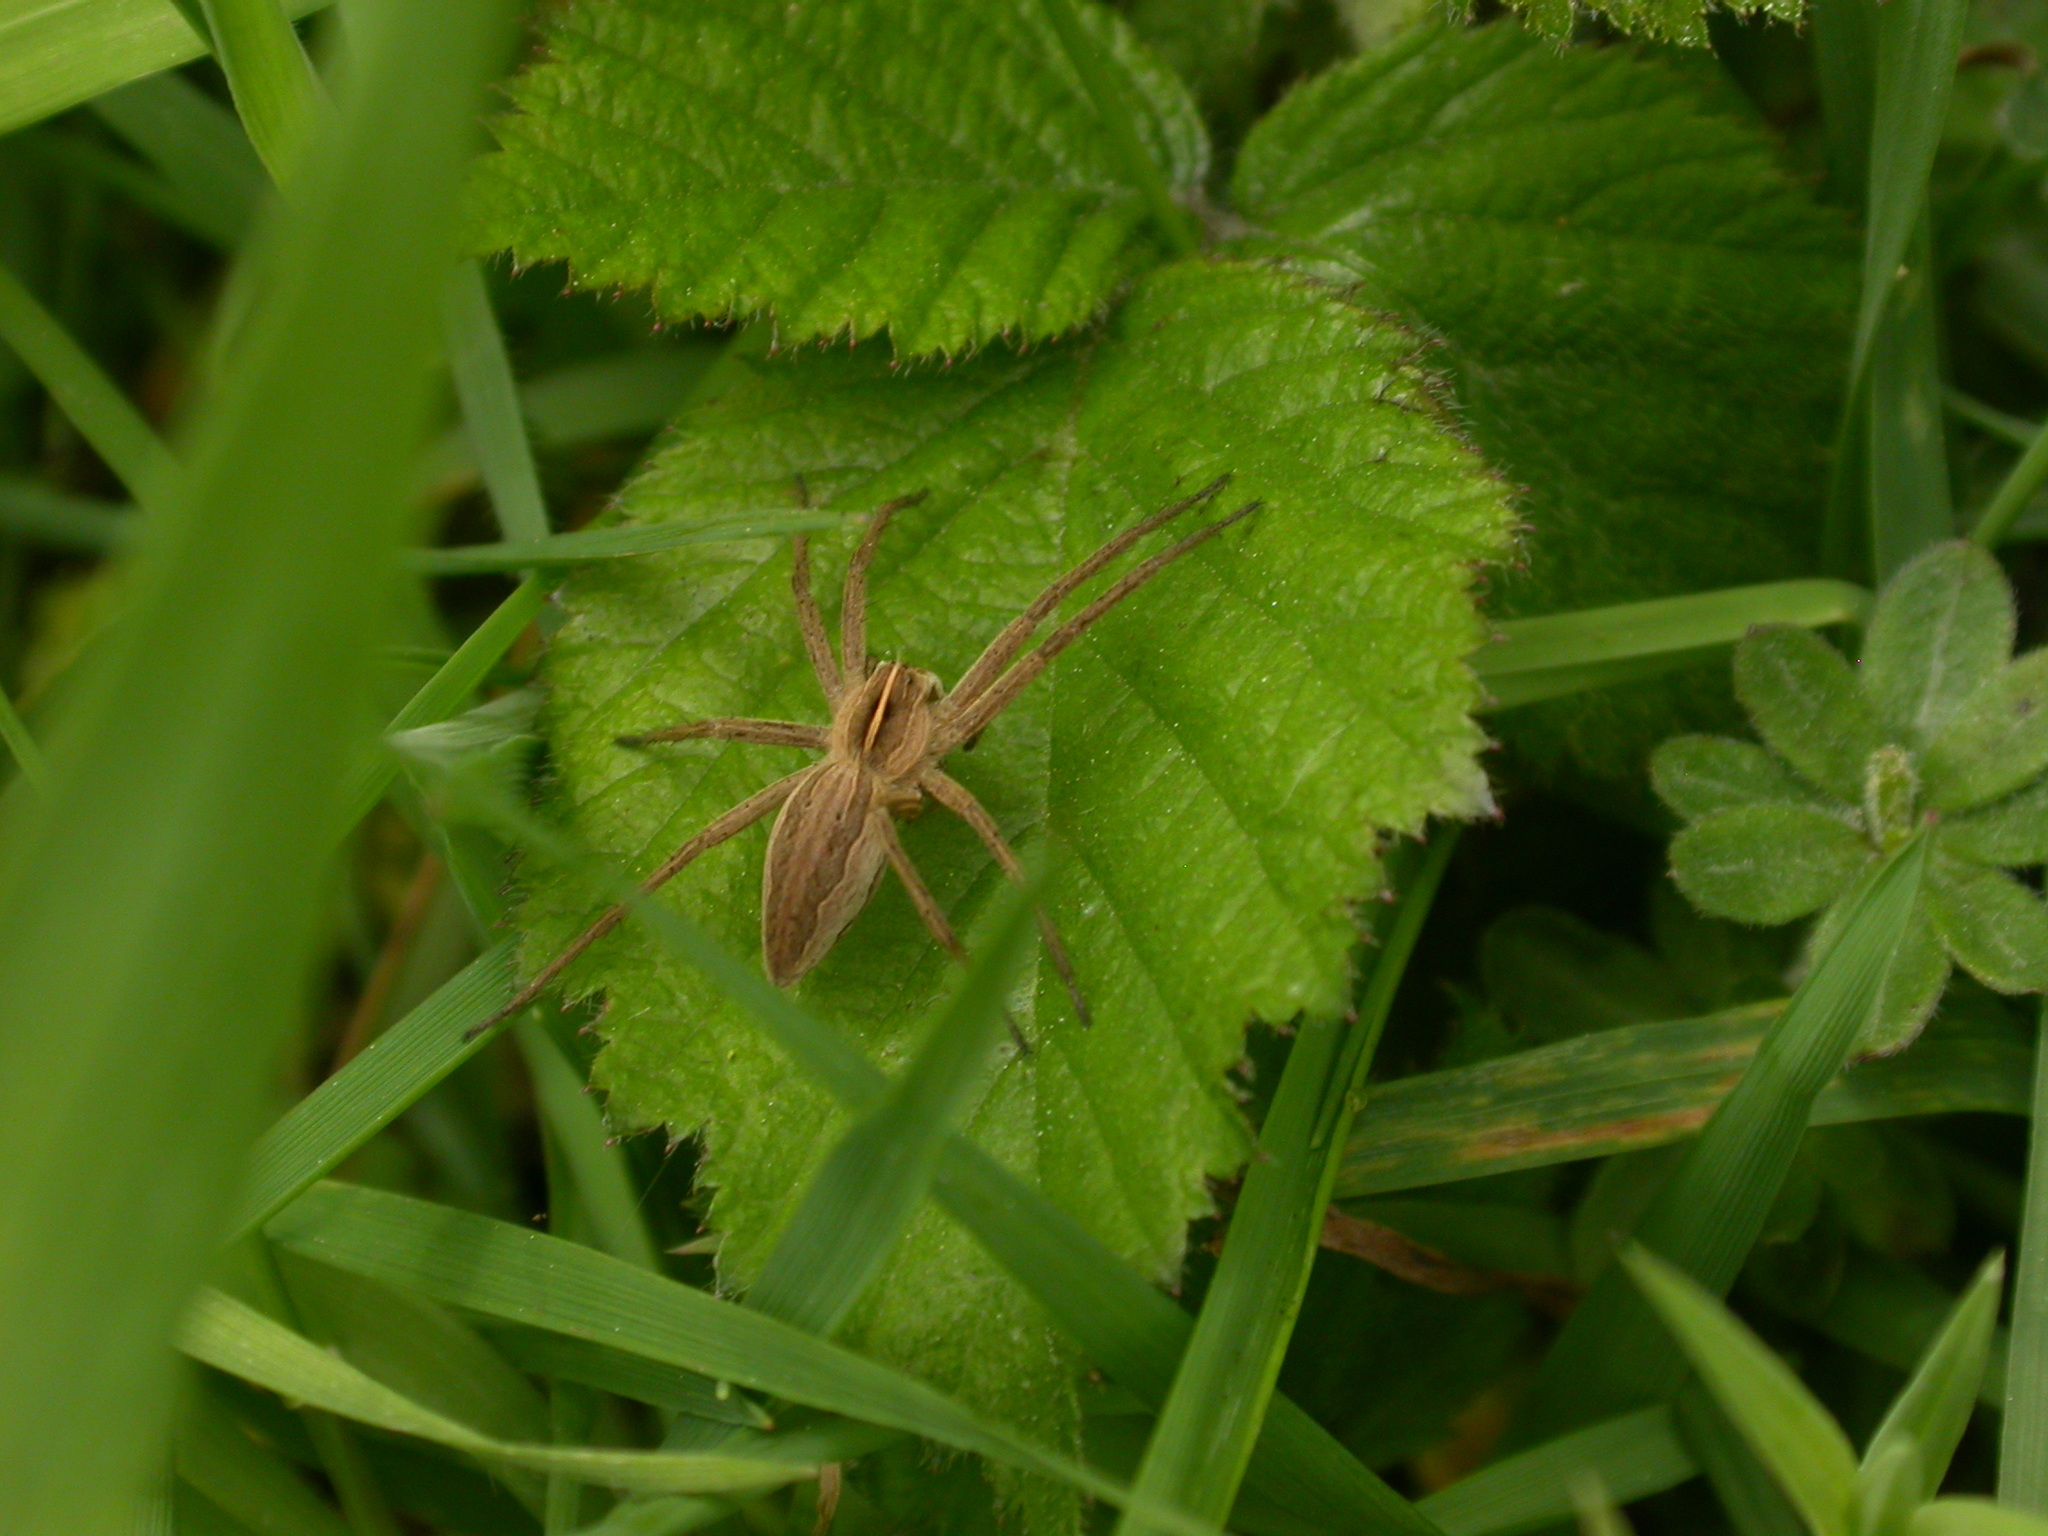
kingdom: Animalia
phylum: Arthropoda
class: Arachnida
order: Araneae
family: Pisauridae
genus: Pisaura
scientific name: Pisaura mirabilis
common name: Tent spider
